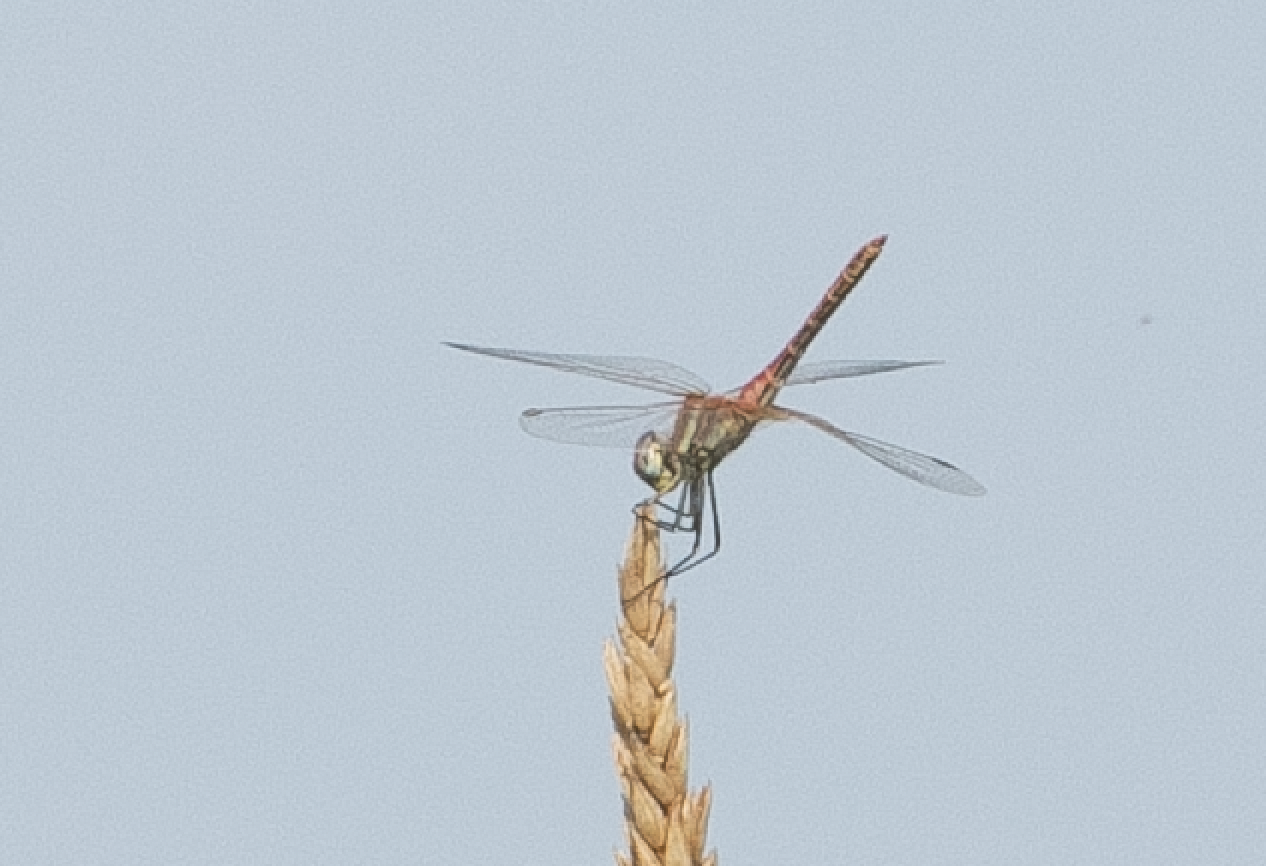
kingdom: Animalia
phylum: Arthropoda
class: Insecta
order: Odonata
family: Libellulidae
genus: Sympetrum
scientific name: Sympetrum fonscolombii
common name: Red-veined darter
